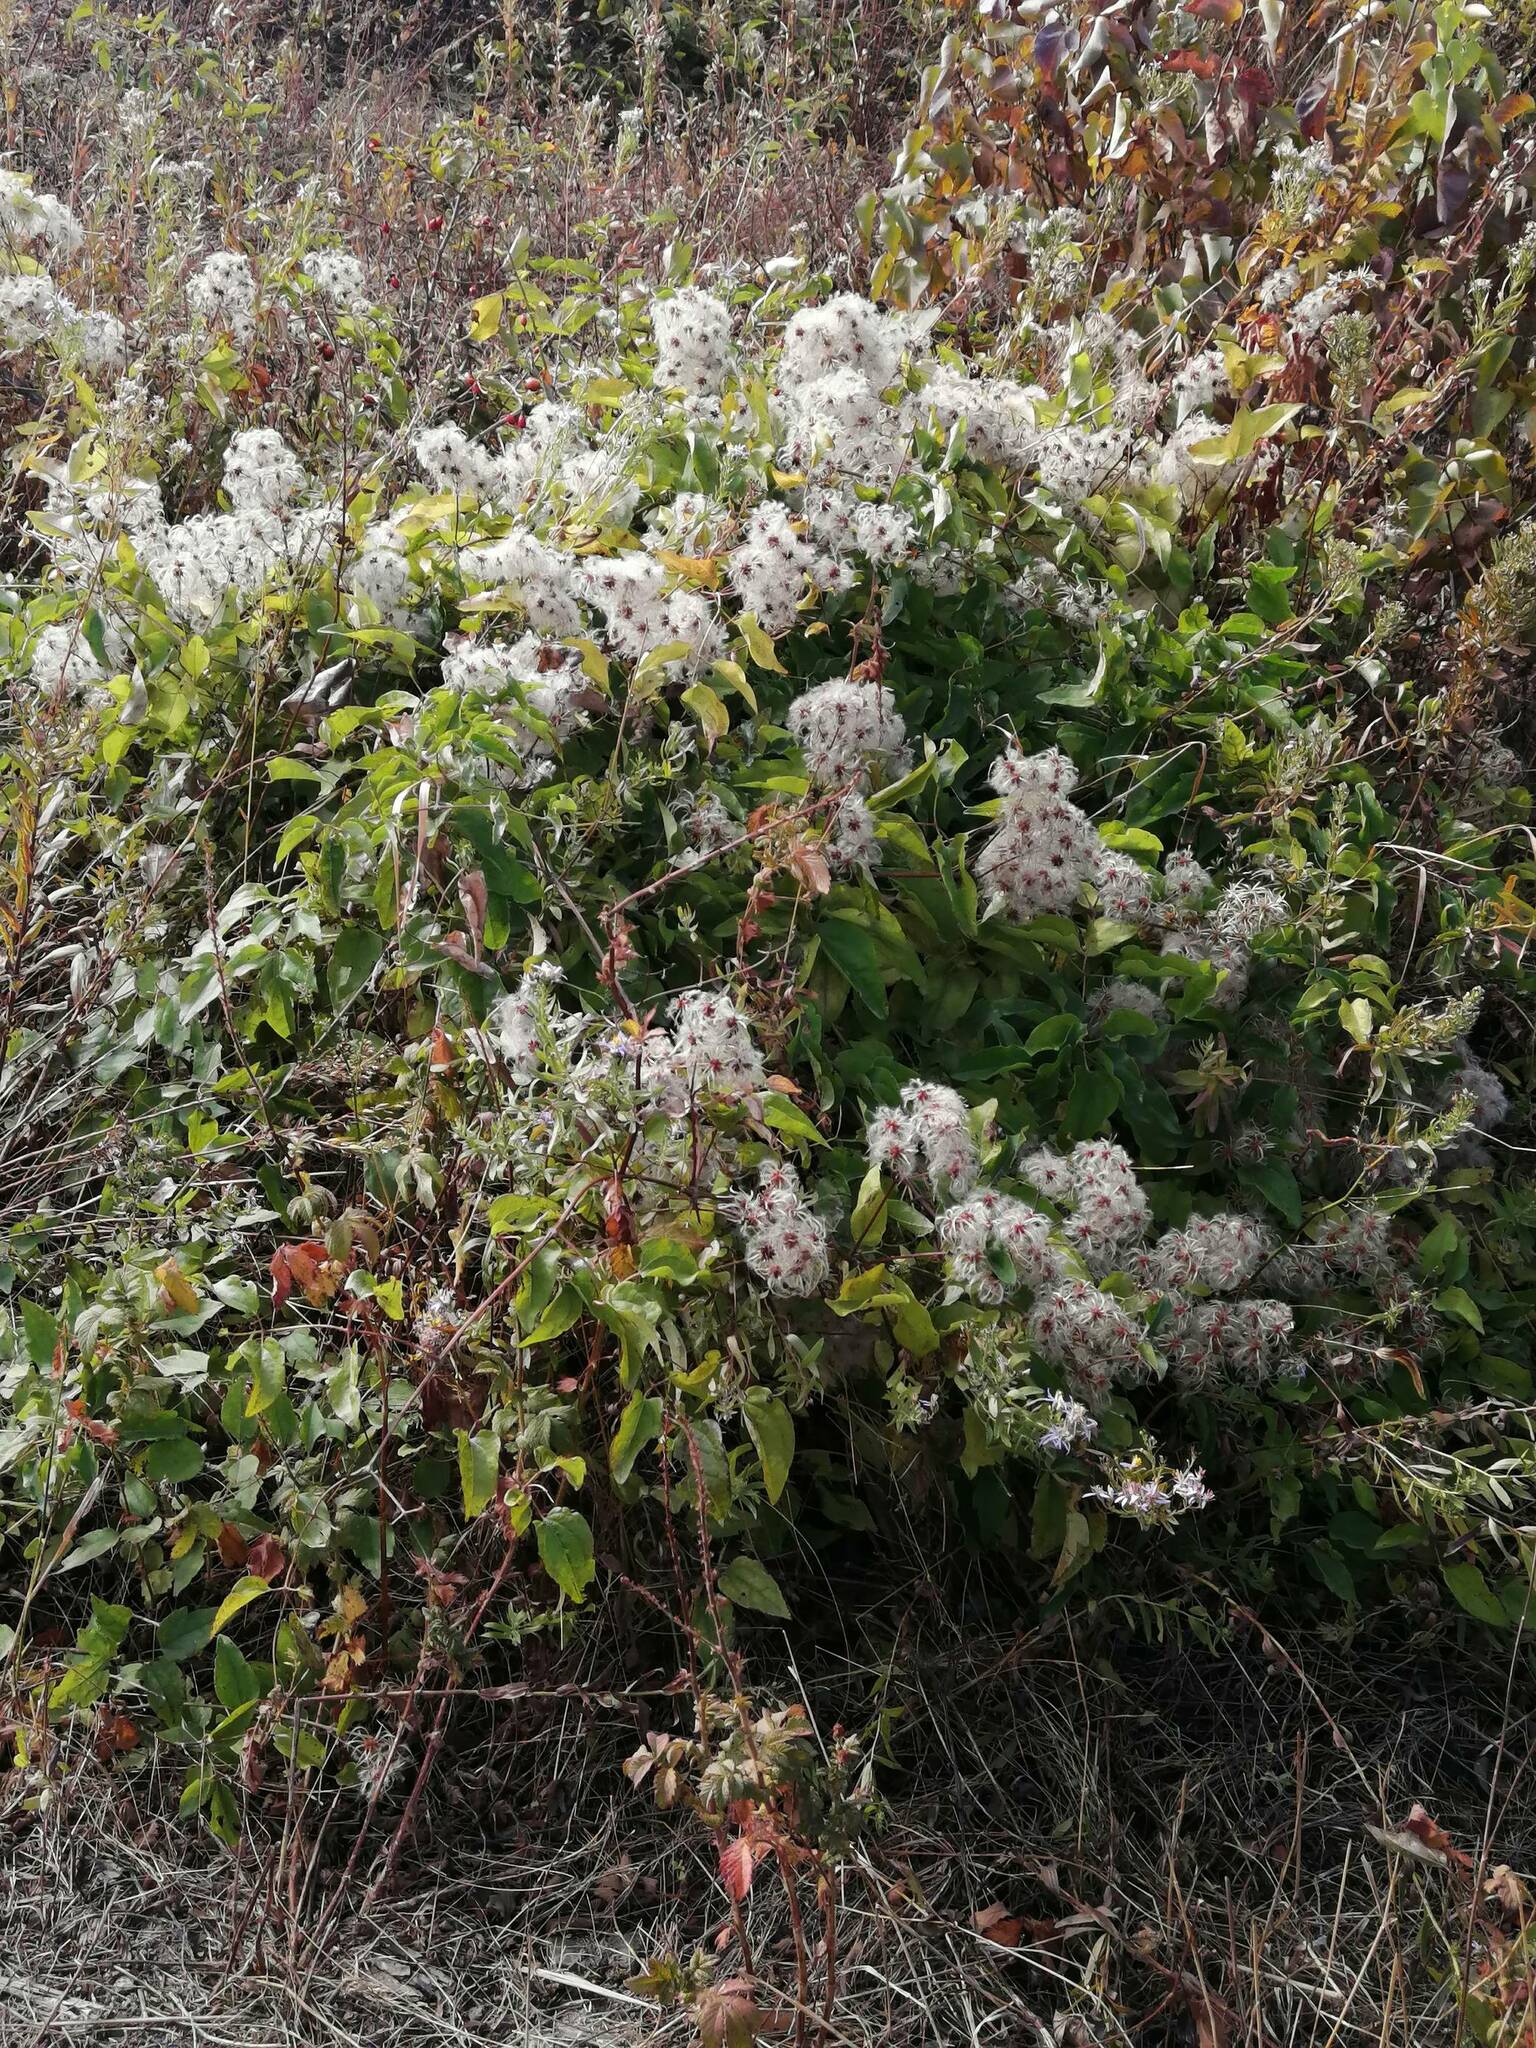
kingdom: Plantae
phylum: Tracheophyta
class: Magnoliopsida
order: Ranunculales
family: Ranunculaceae
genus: Clematis
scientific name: Clematis vitalba
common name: Evergreen clematis
